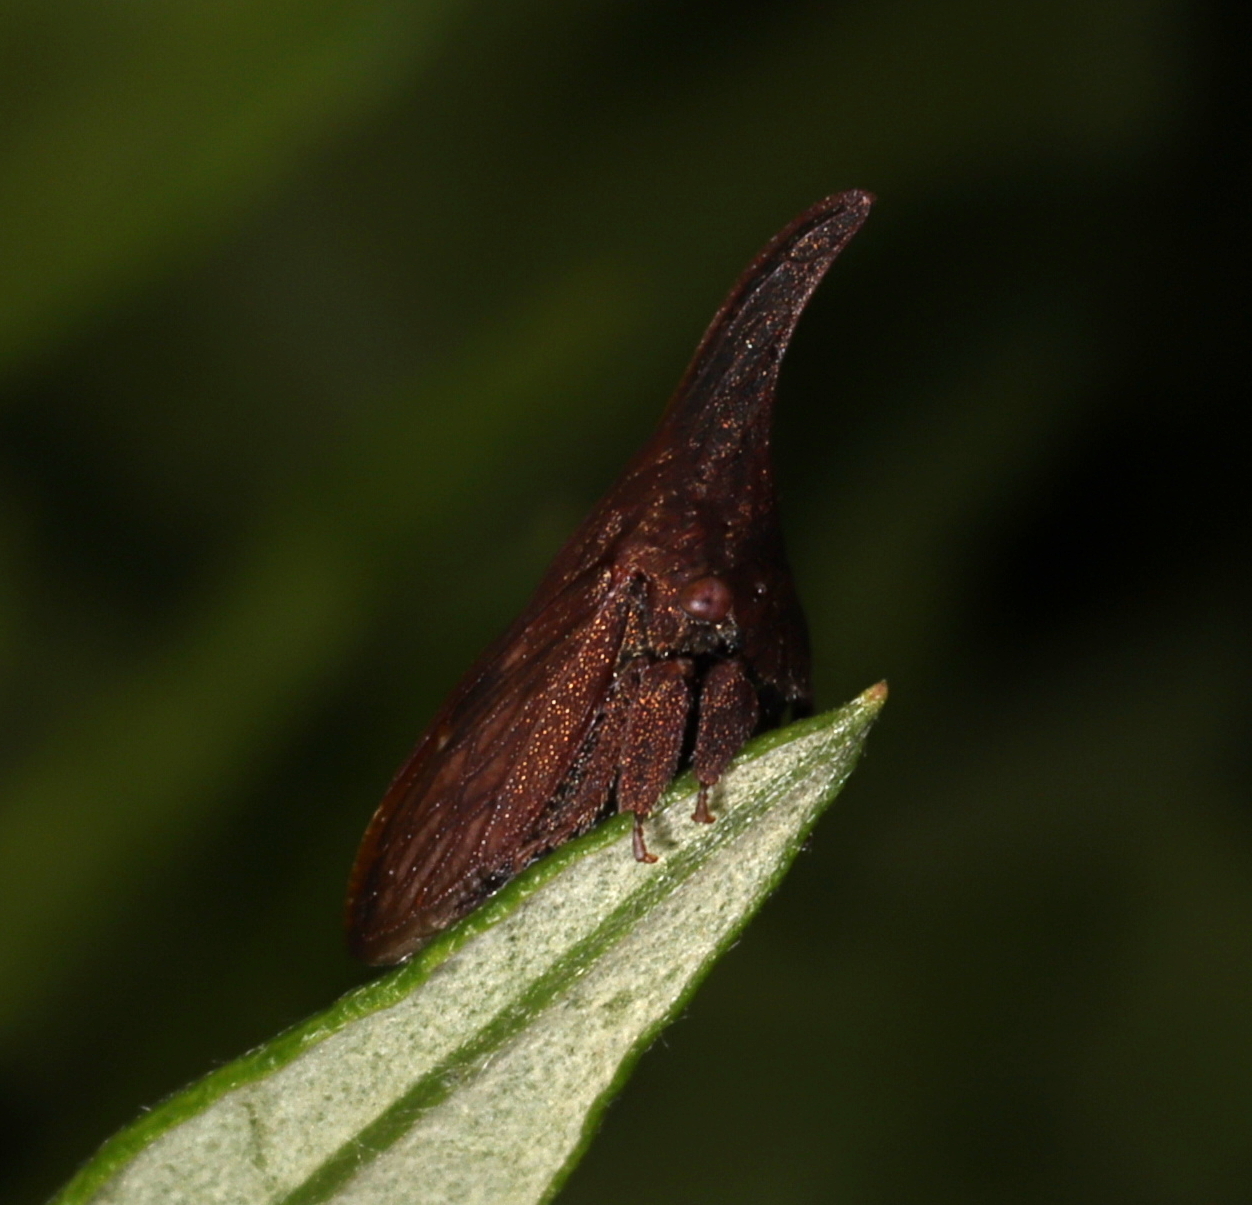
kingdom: Animalia
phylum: Arthropoda
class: Insecta
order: Hemiptera
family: Membracidae
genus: Enchenopa
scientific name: Enchenopa latipes
